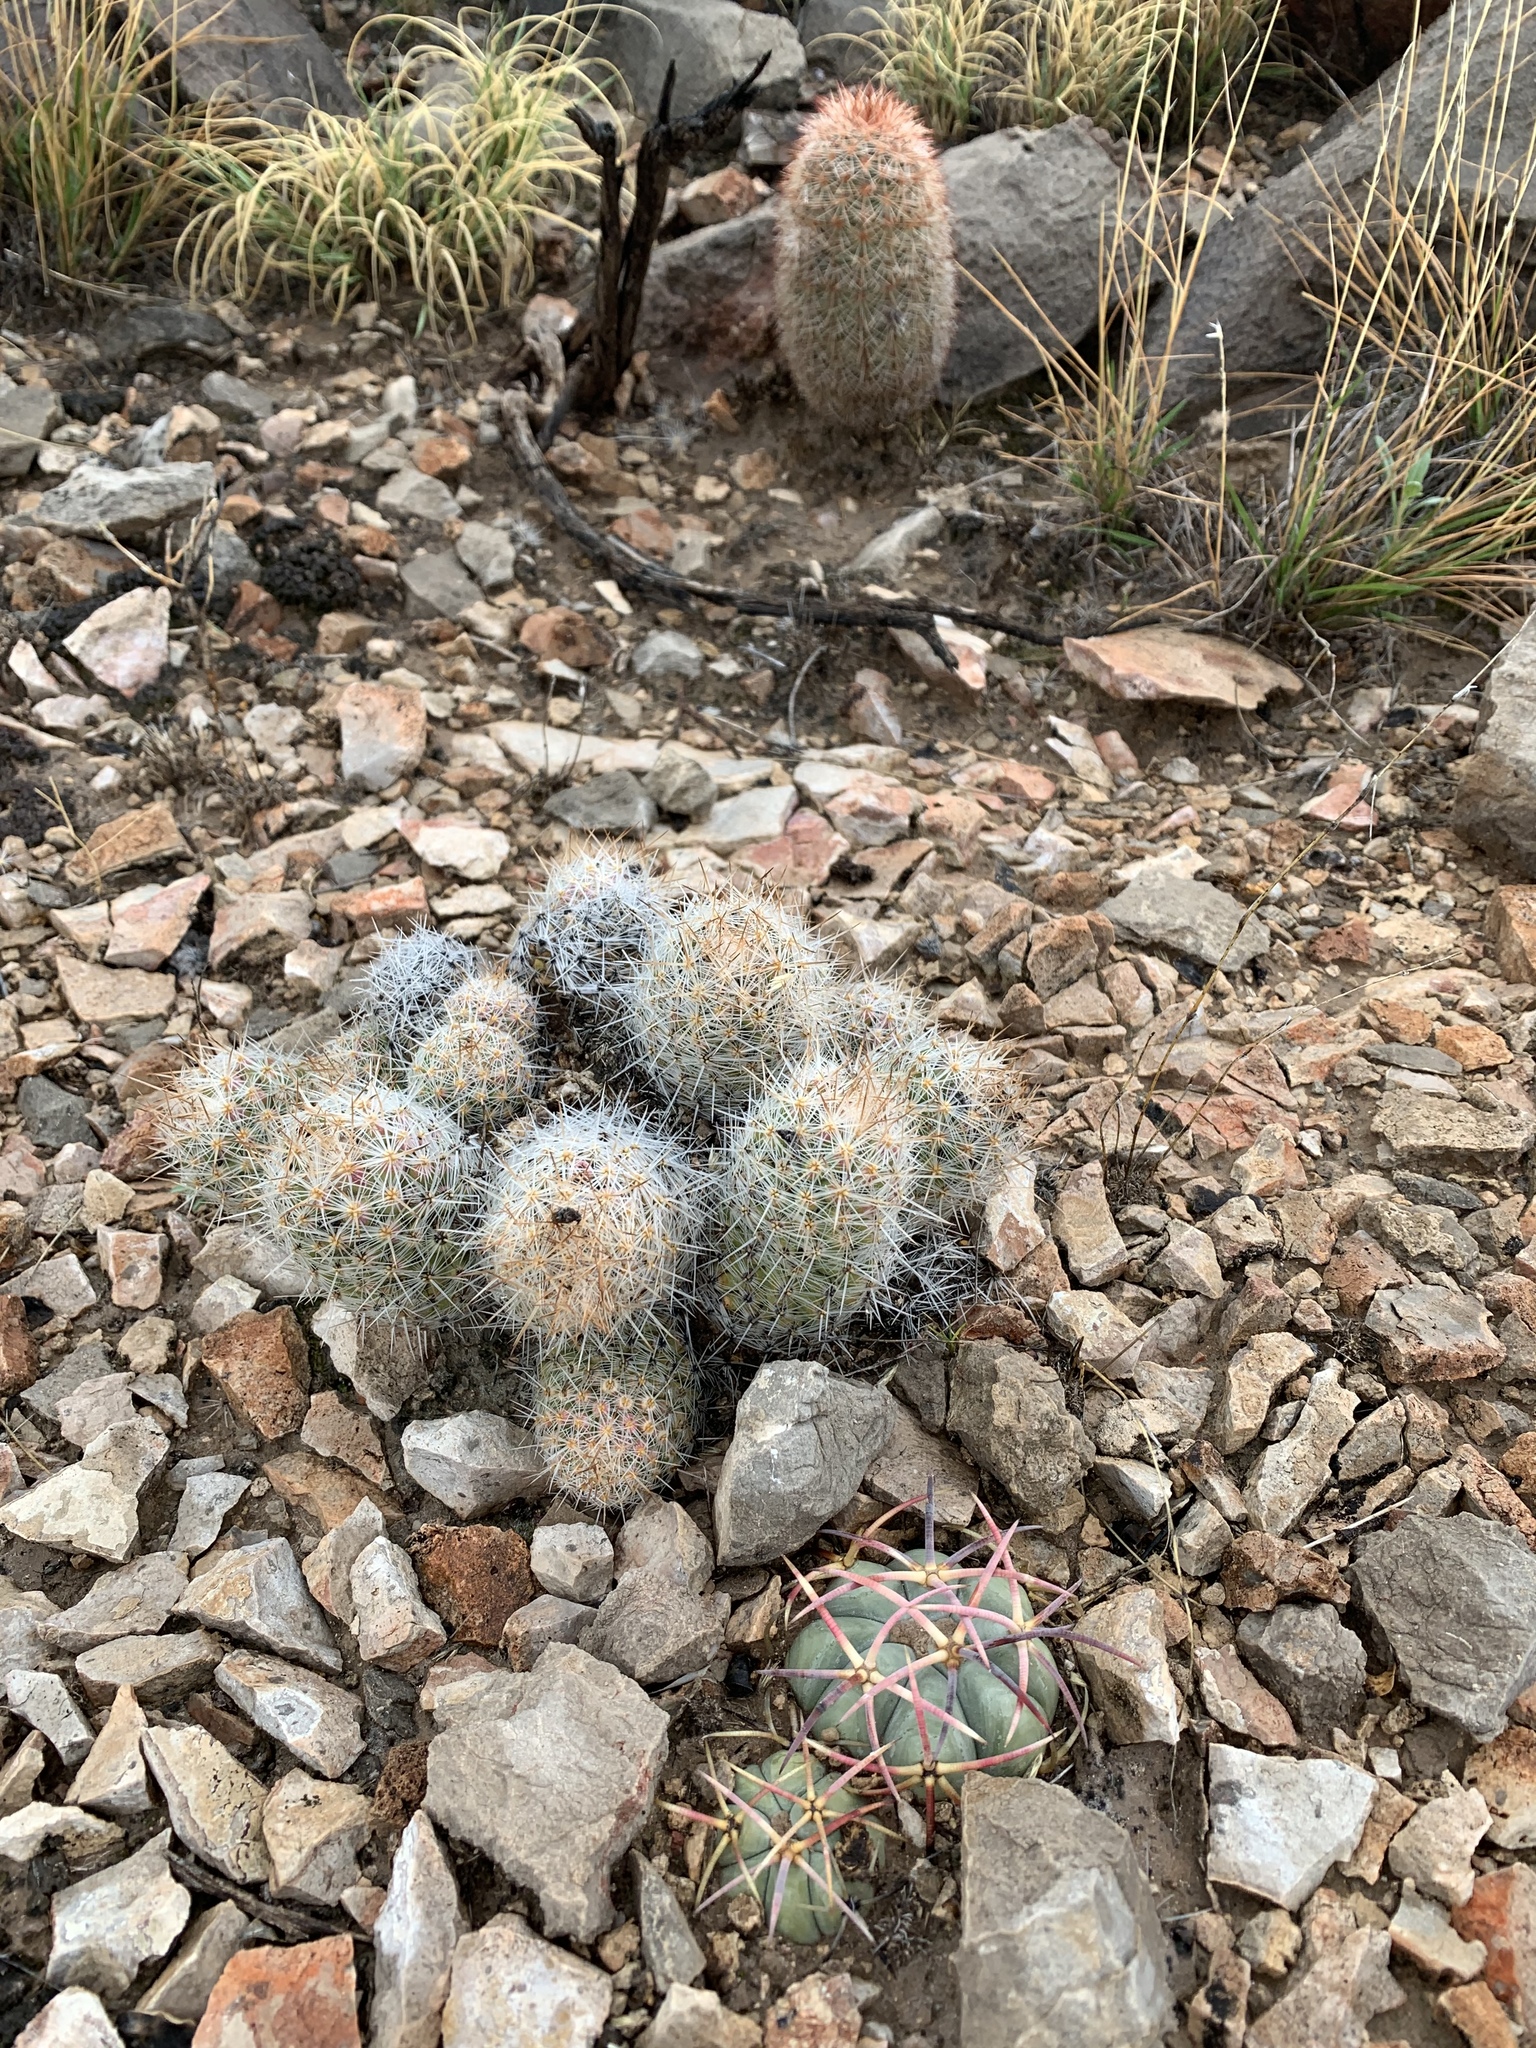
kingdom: Plantae
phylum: Tracheophyta
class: Magnoliopsida
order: Caryophyllales
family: Cactaceae
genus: Pelecyphora
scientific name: Pelecyphora tuberculosa
